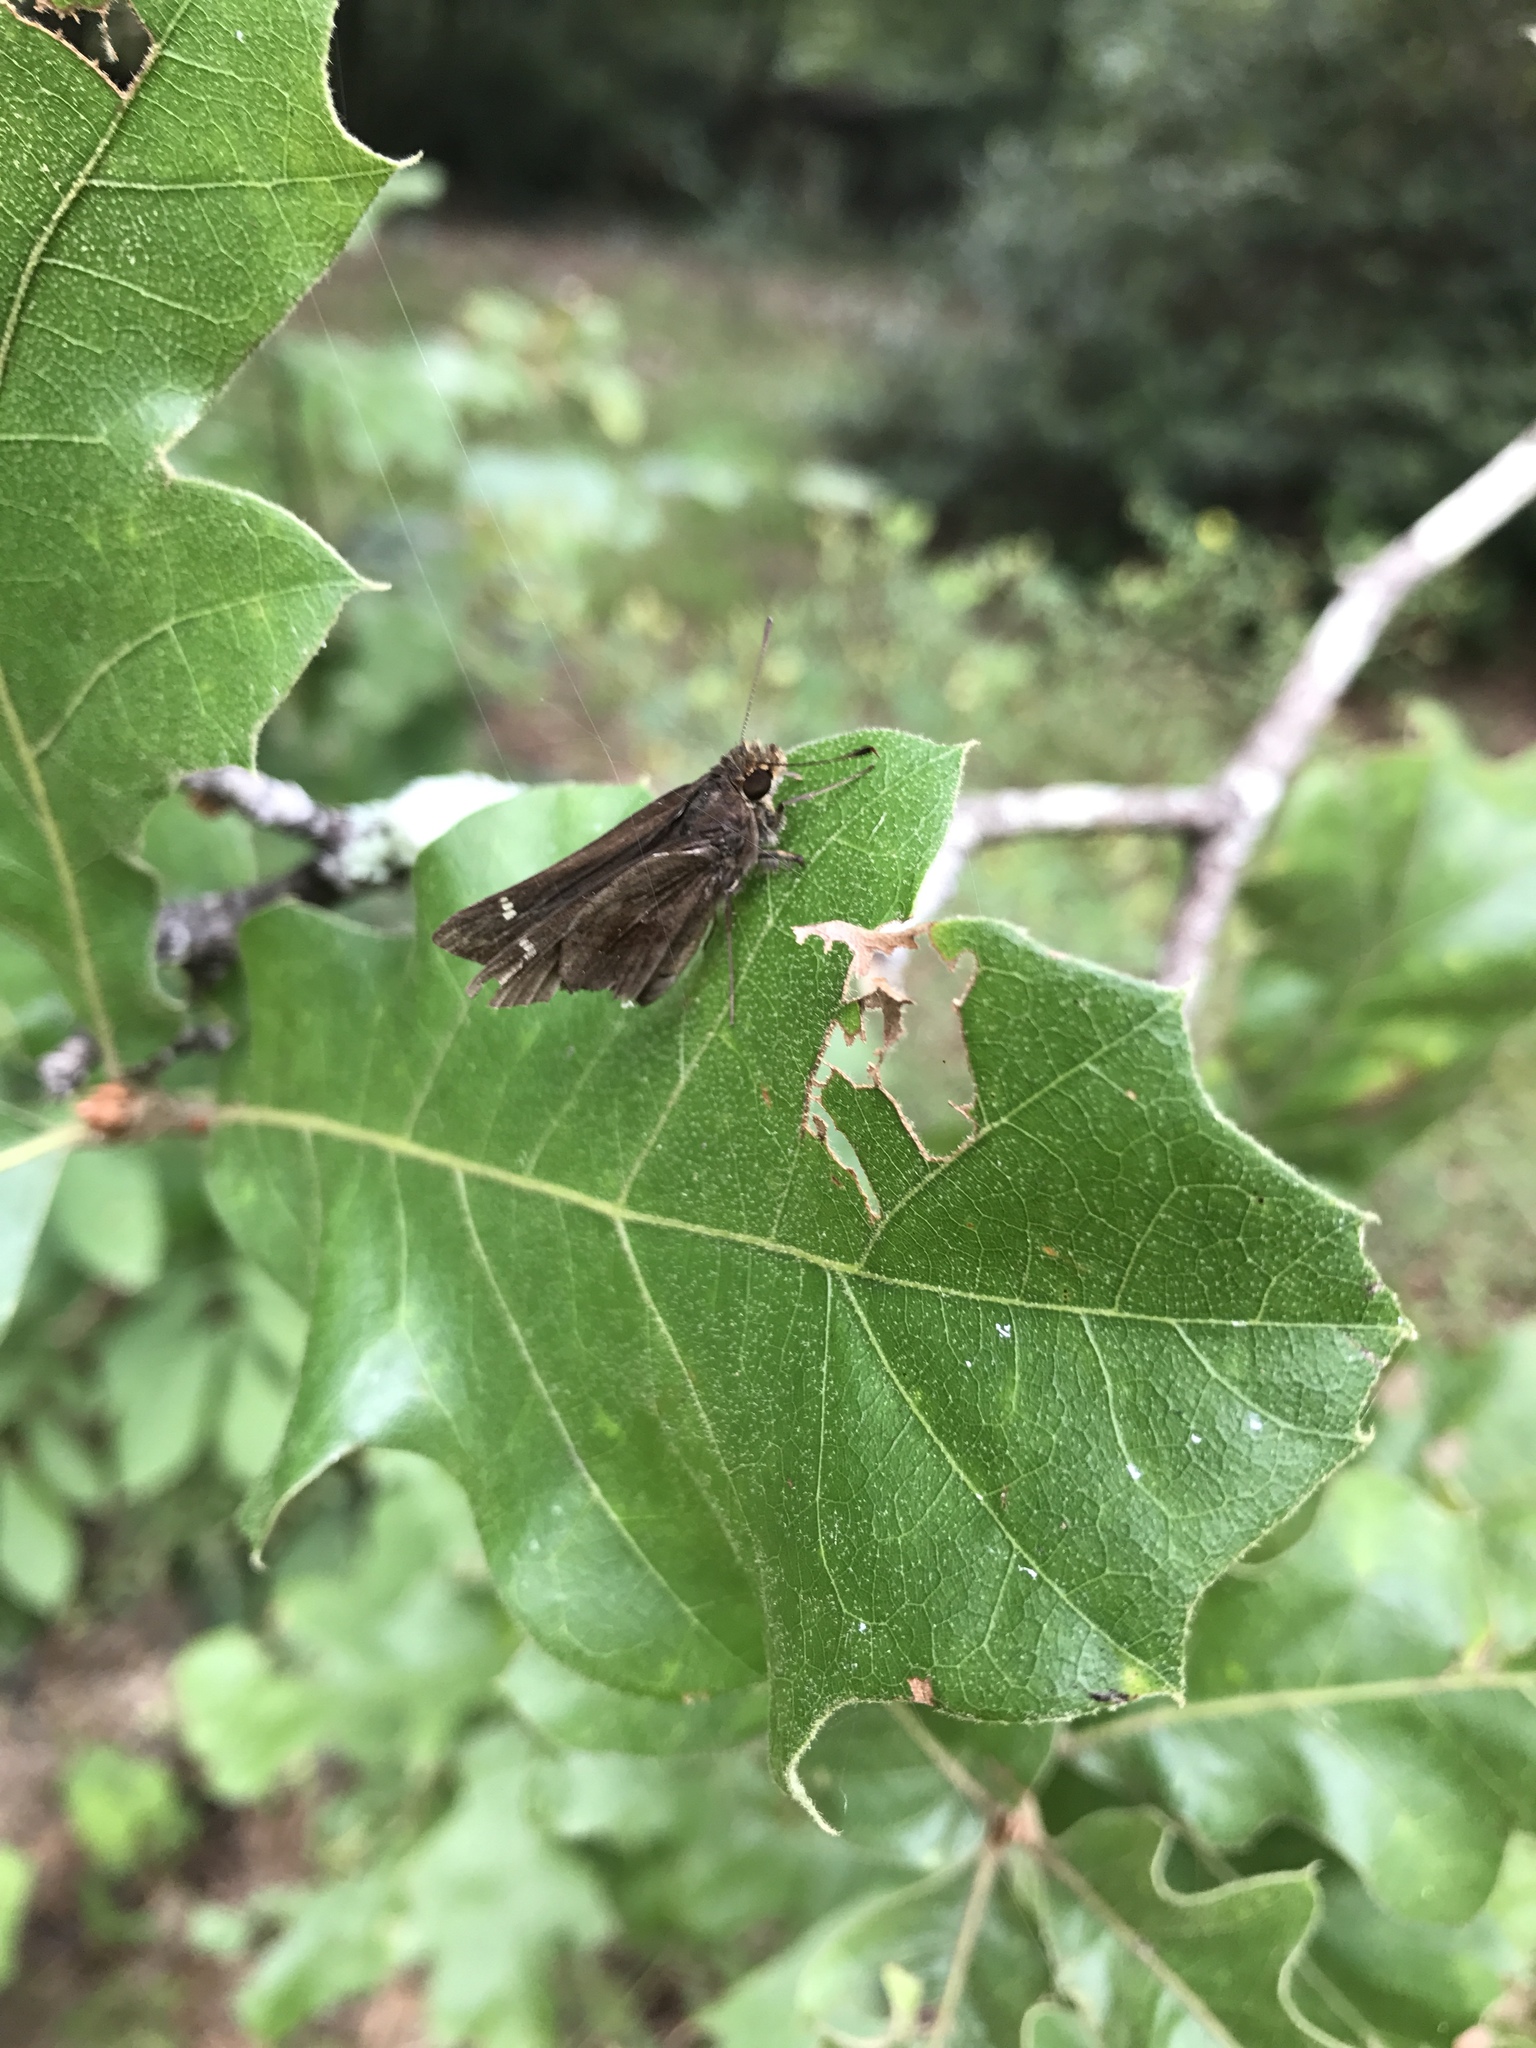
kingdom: Animalia
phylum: Arthropoda
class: Insecta
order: Lepidoptera
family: Hesperiidae
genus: Lerema
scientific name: Lerema accius
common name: Clouded skipper
